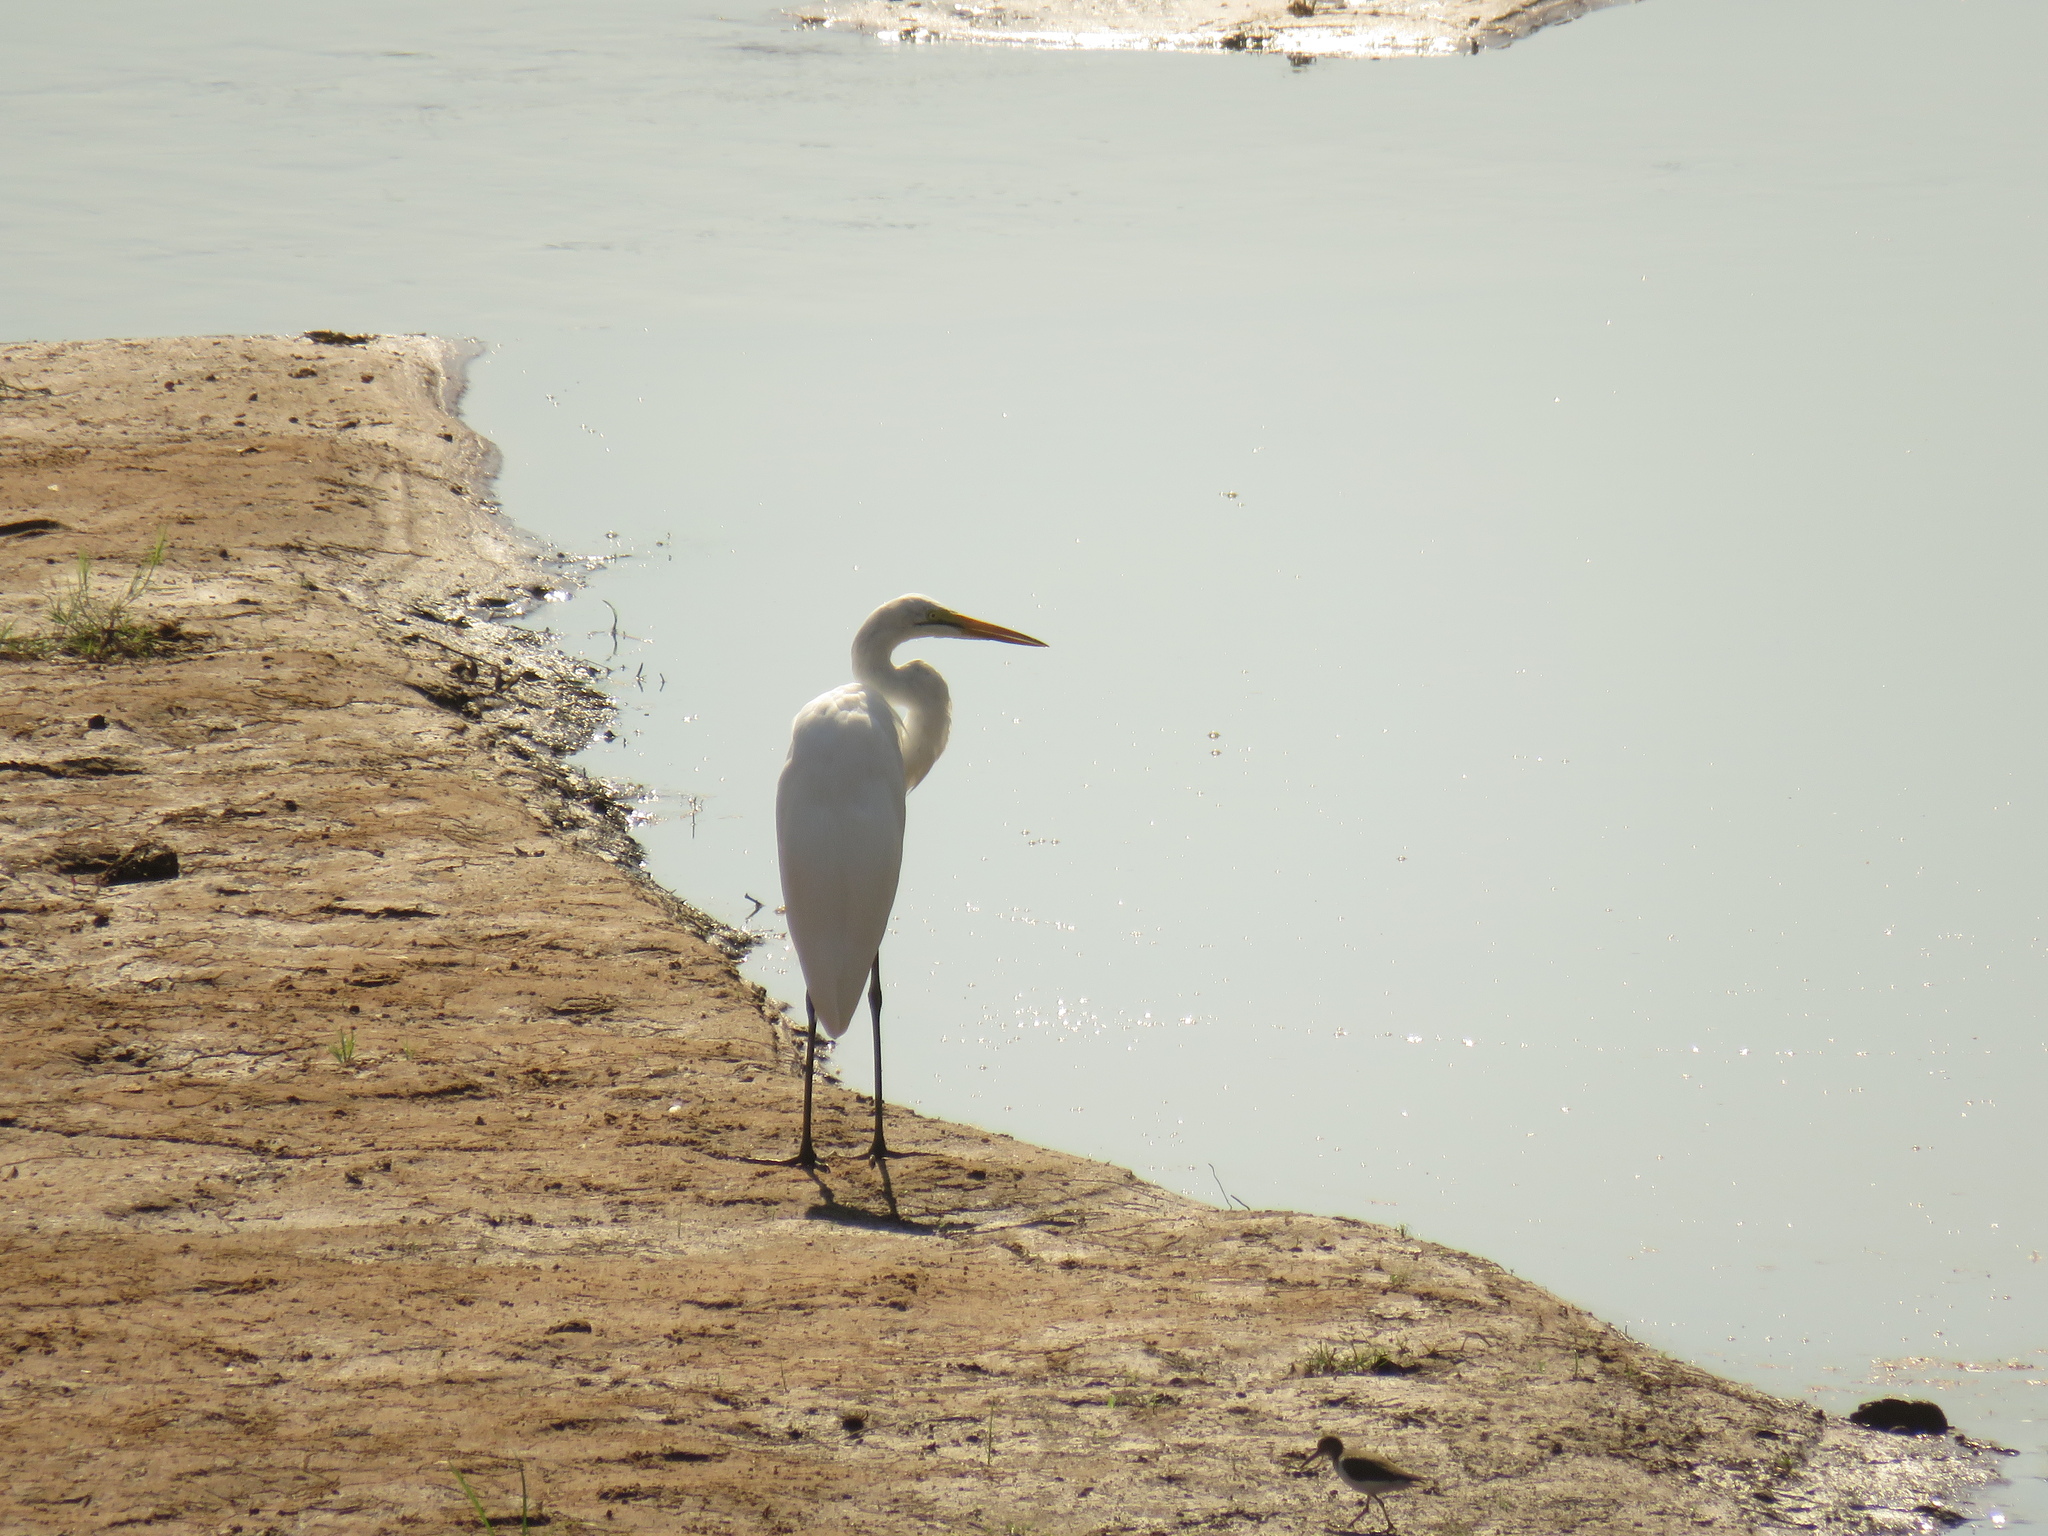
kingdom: Animalia
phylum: Chordata
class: Aves
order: Pelecaniformes
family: Ardeidae
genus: Ardea
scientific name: Ardea alba
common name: Great egret
